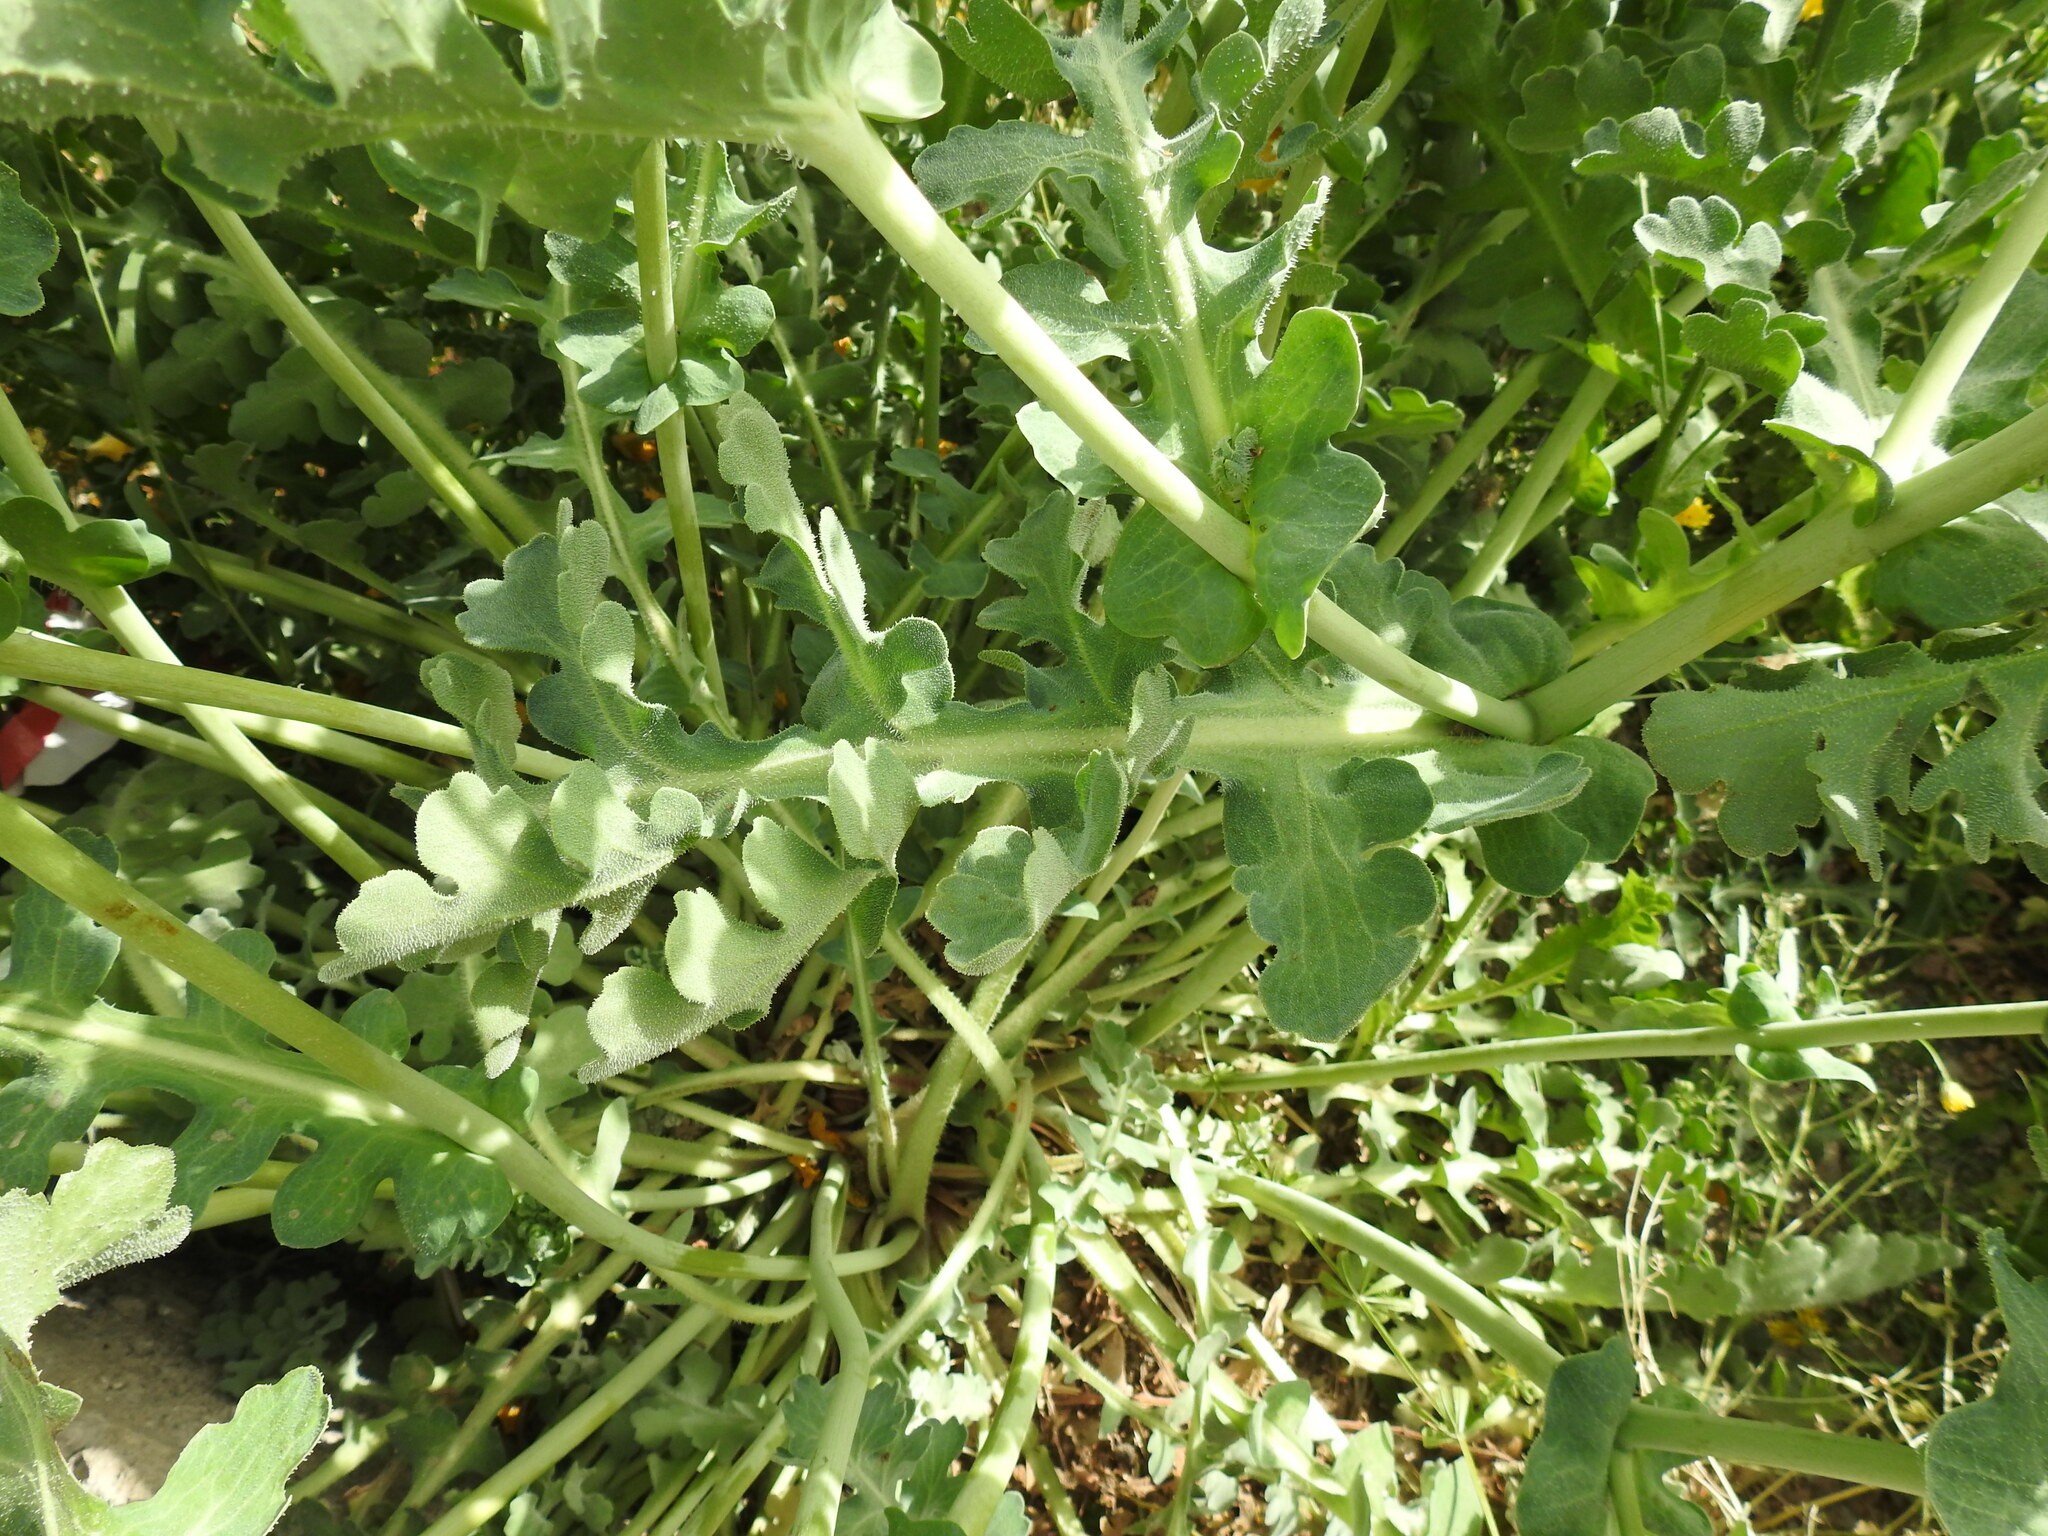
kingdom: Plantae
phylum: Tracheophyta
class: Magnoliopsida
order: Ranunculales
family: Papaveraceae
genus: Glaucium
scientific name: Glaucium flavum
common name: Yellow horned-poppy
